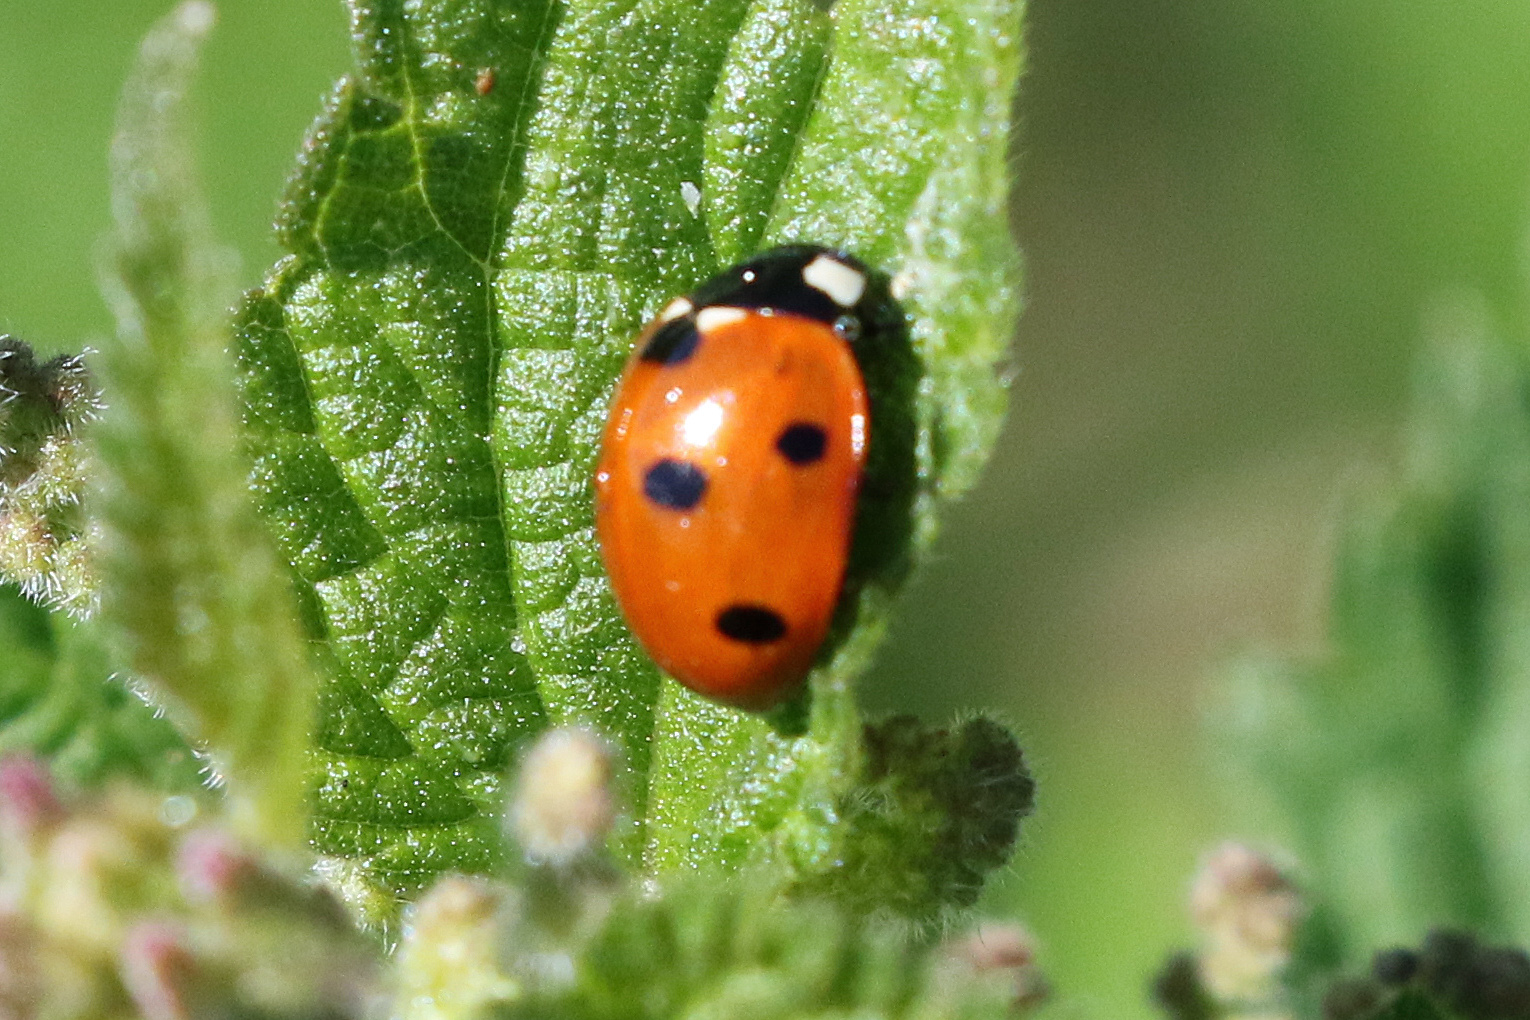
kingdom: Animalia
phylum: Arthropoda
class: Insecta
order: Coleoptera
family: Coccinellidae
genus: Coccinella
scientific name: Coccinella septempunctata
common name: Sevenspotted lady beetle
